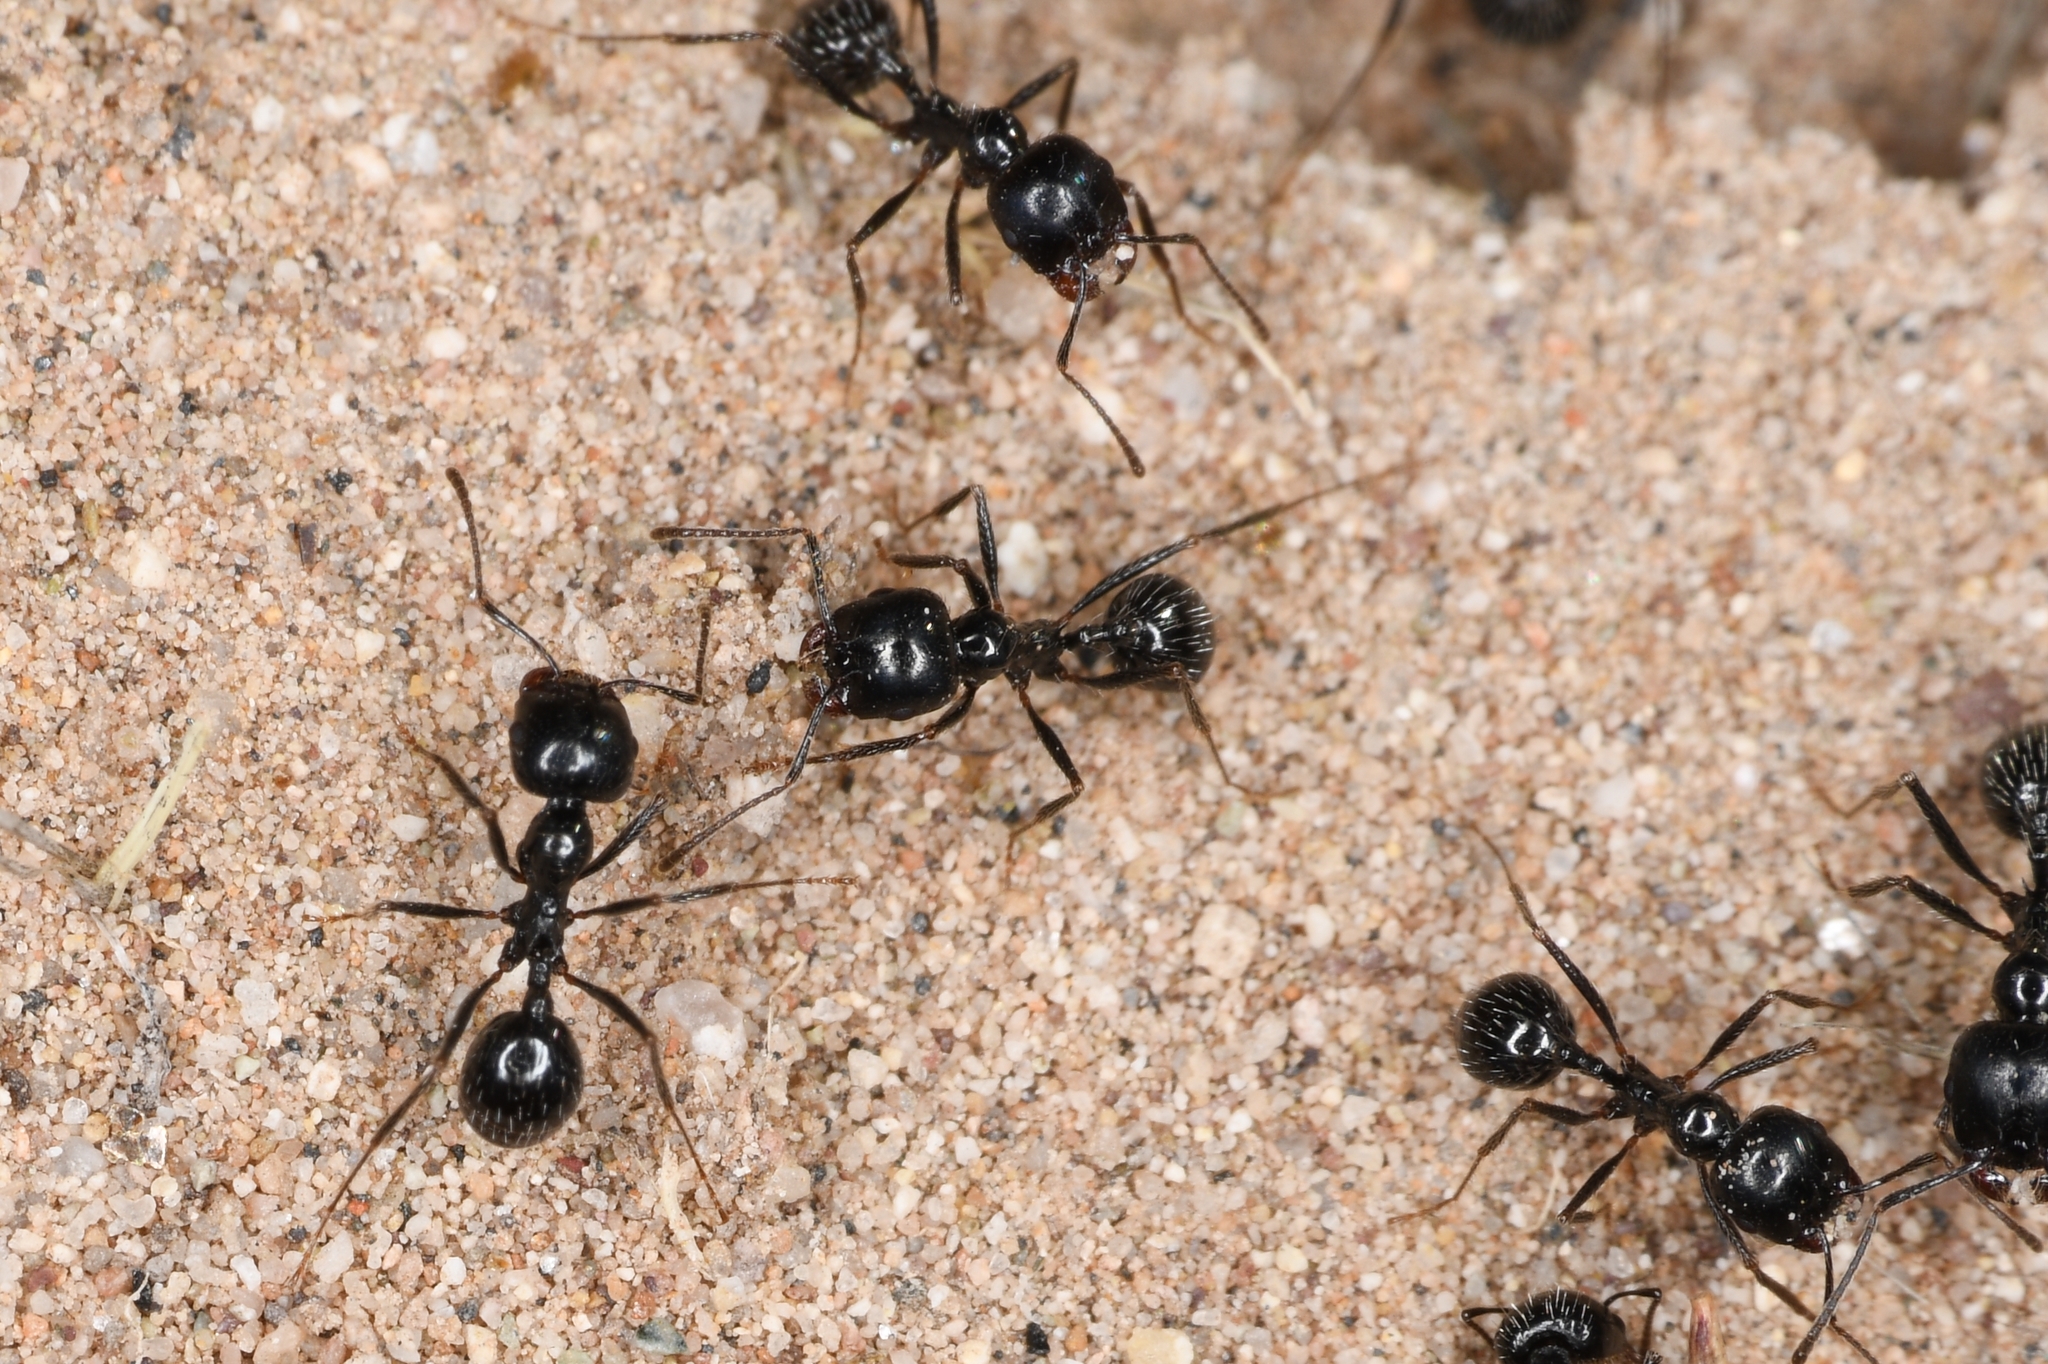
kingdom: Animalia
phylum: Arthropoda
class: Insecta
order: Hymenoptera
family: Formicidae
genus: Messor
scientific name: Messor pergandei
